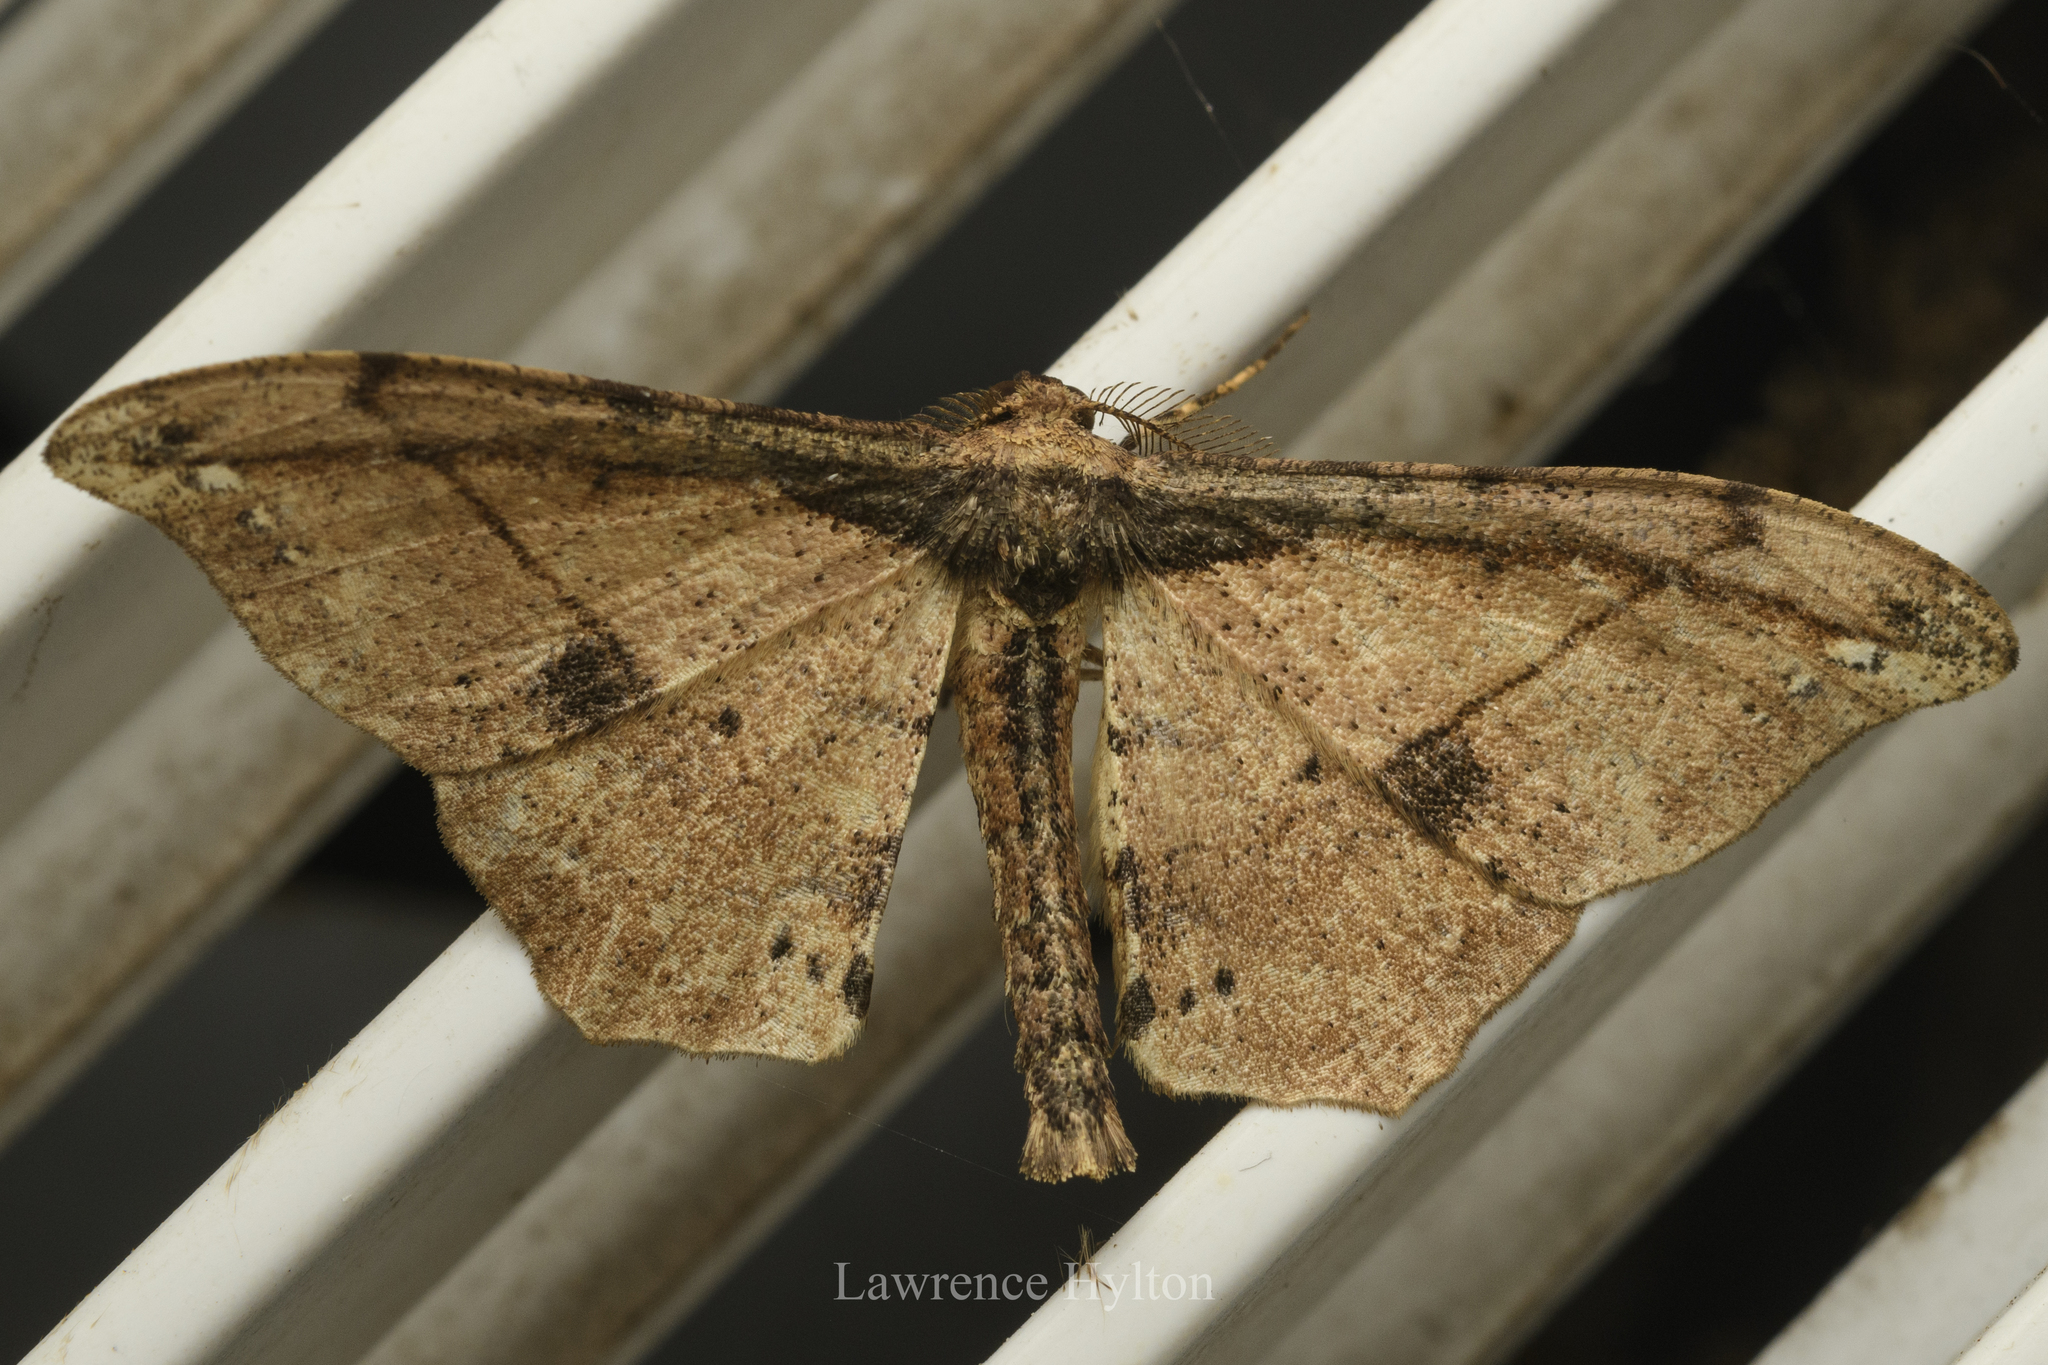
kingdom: Animalia
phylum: Arthropoda
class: Insecta
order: Lepidoptera
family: Geometridae
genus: Hyposidra
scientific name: Hyposidra infixaria
